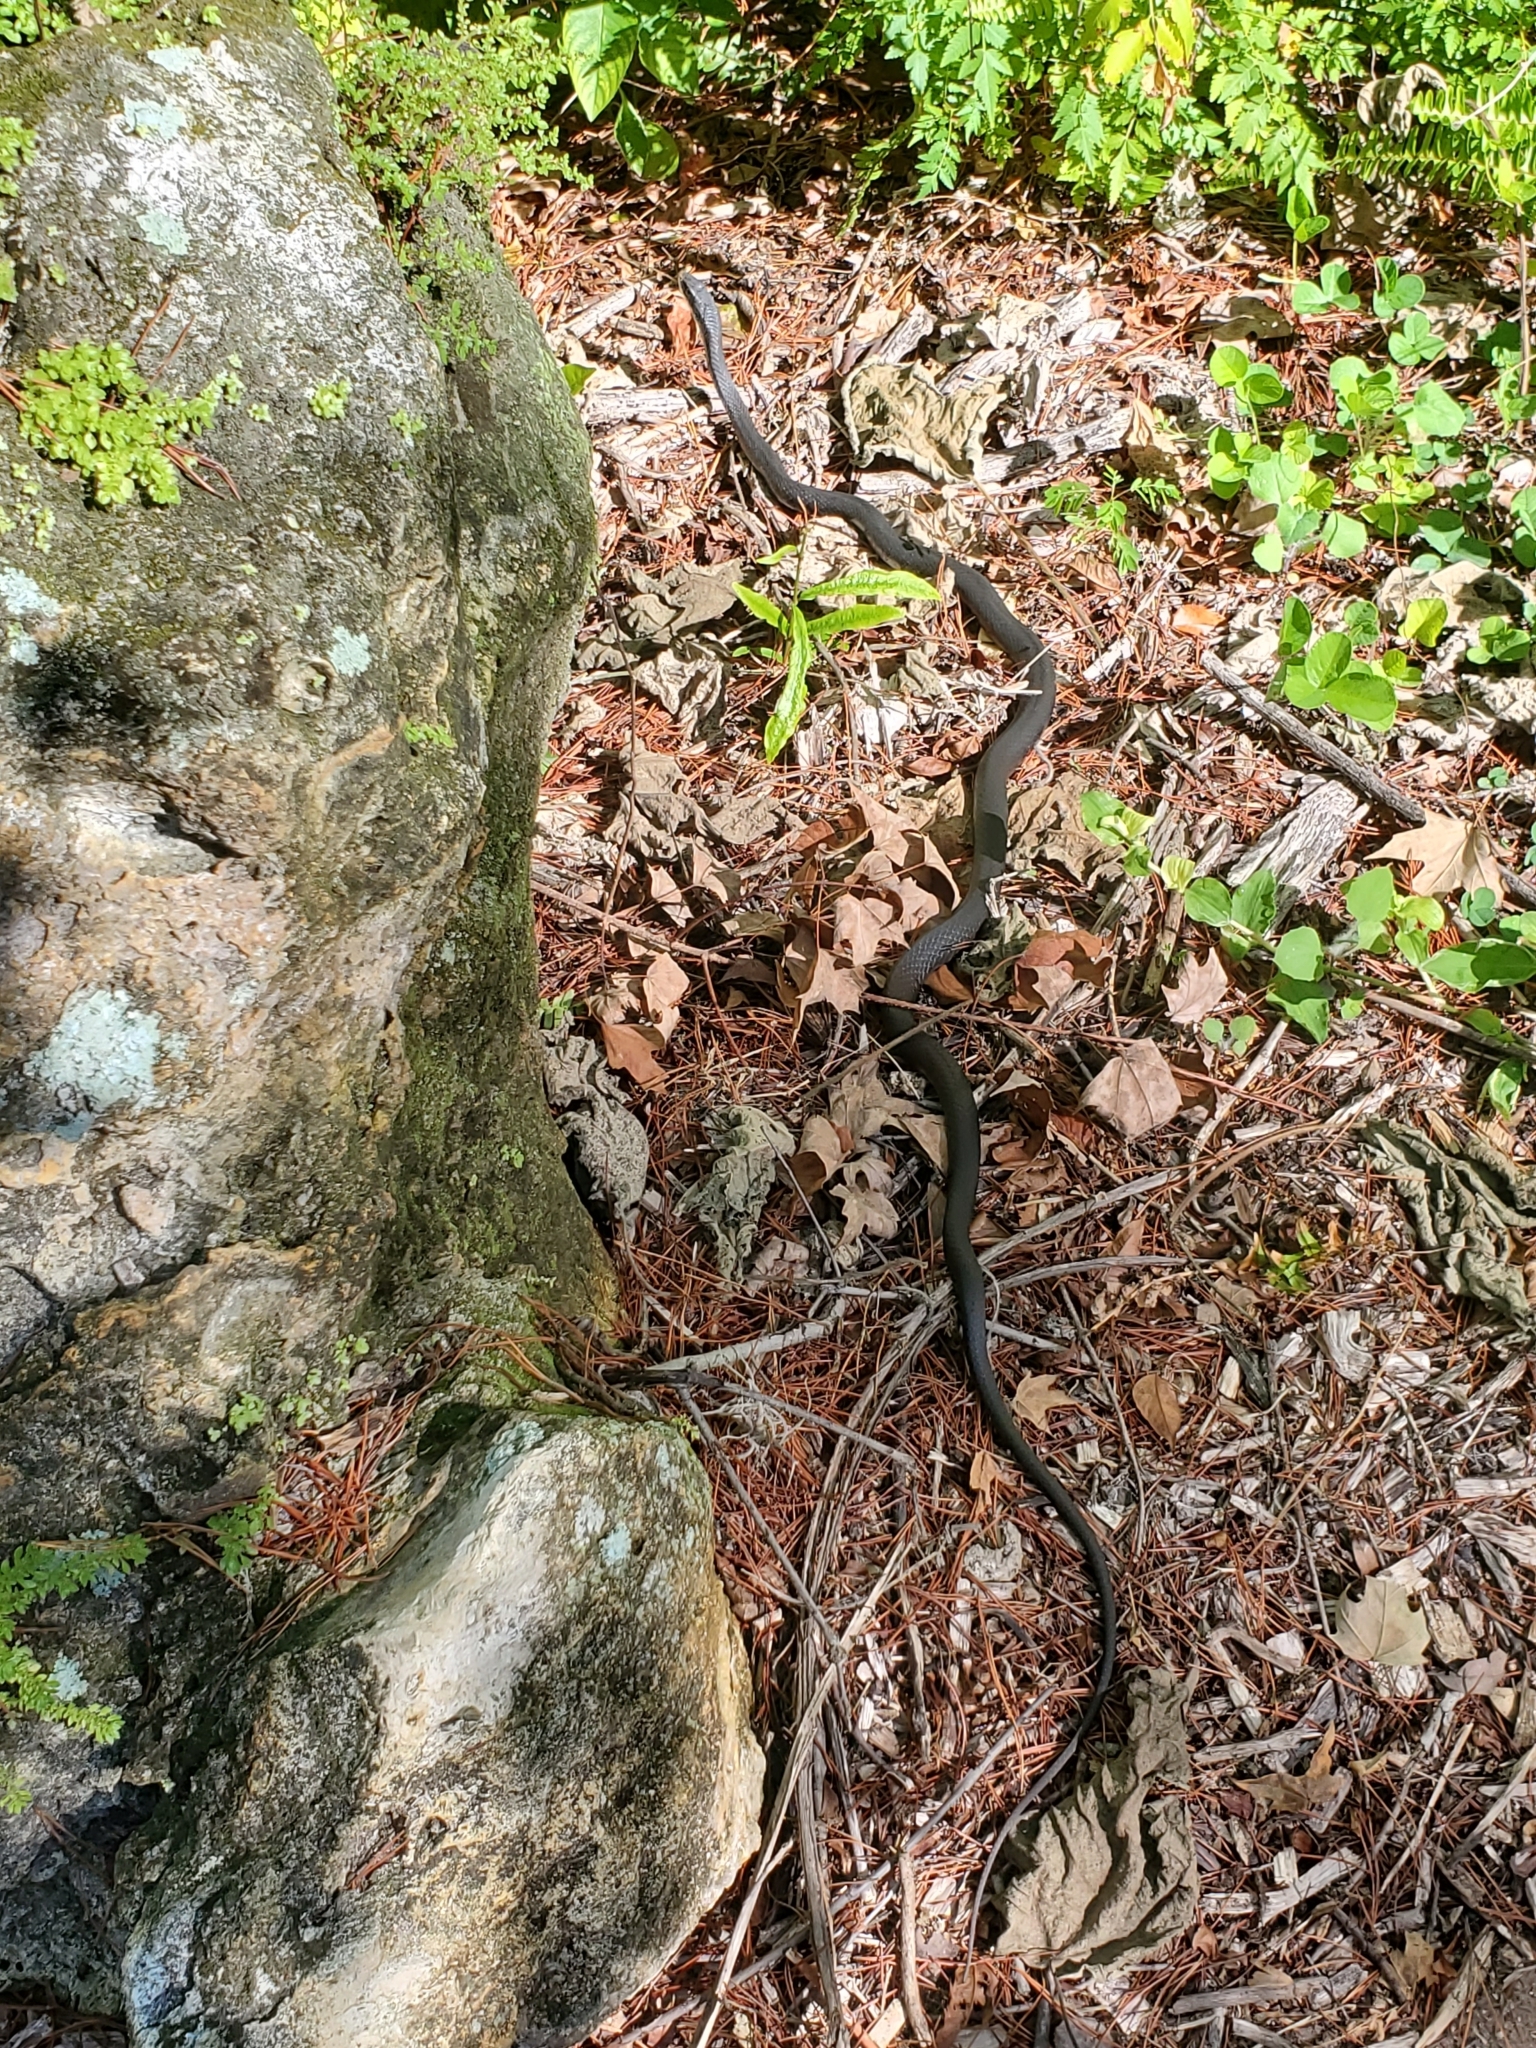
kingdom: Animalia
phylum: Chordata
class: Squamata
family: Colubridae
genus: Coluber
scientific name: Coluber constrictor
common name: Eastern racer
